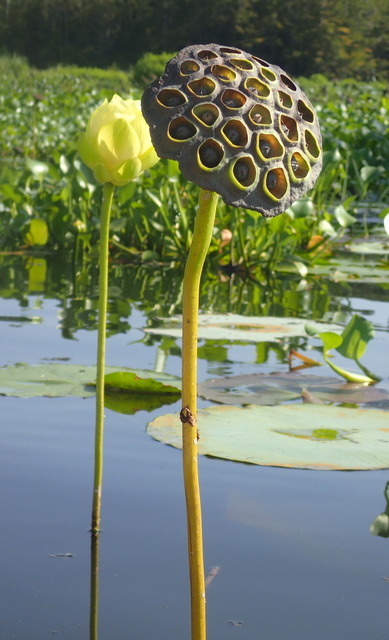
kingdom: Plantae
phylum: Tracheophyta
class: Magnoliopsida
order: Proteales
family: Nelumbonaceae
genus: Nelumbo
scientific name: Nelumbo lutea
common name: American lotus
